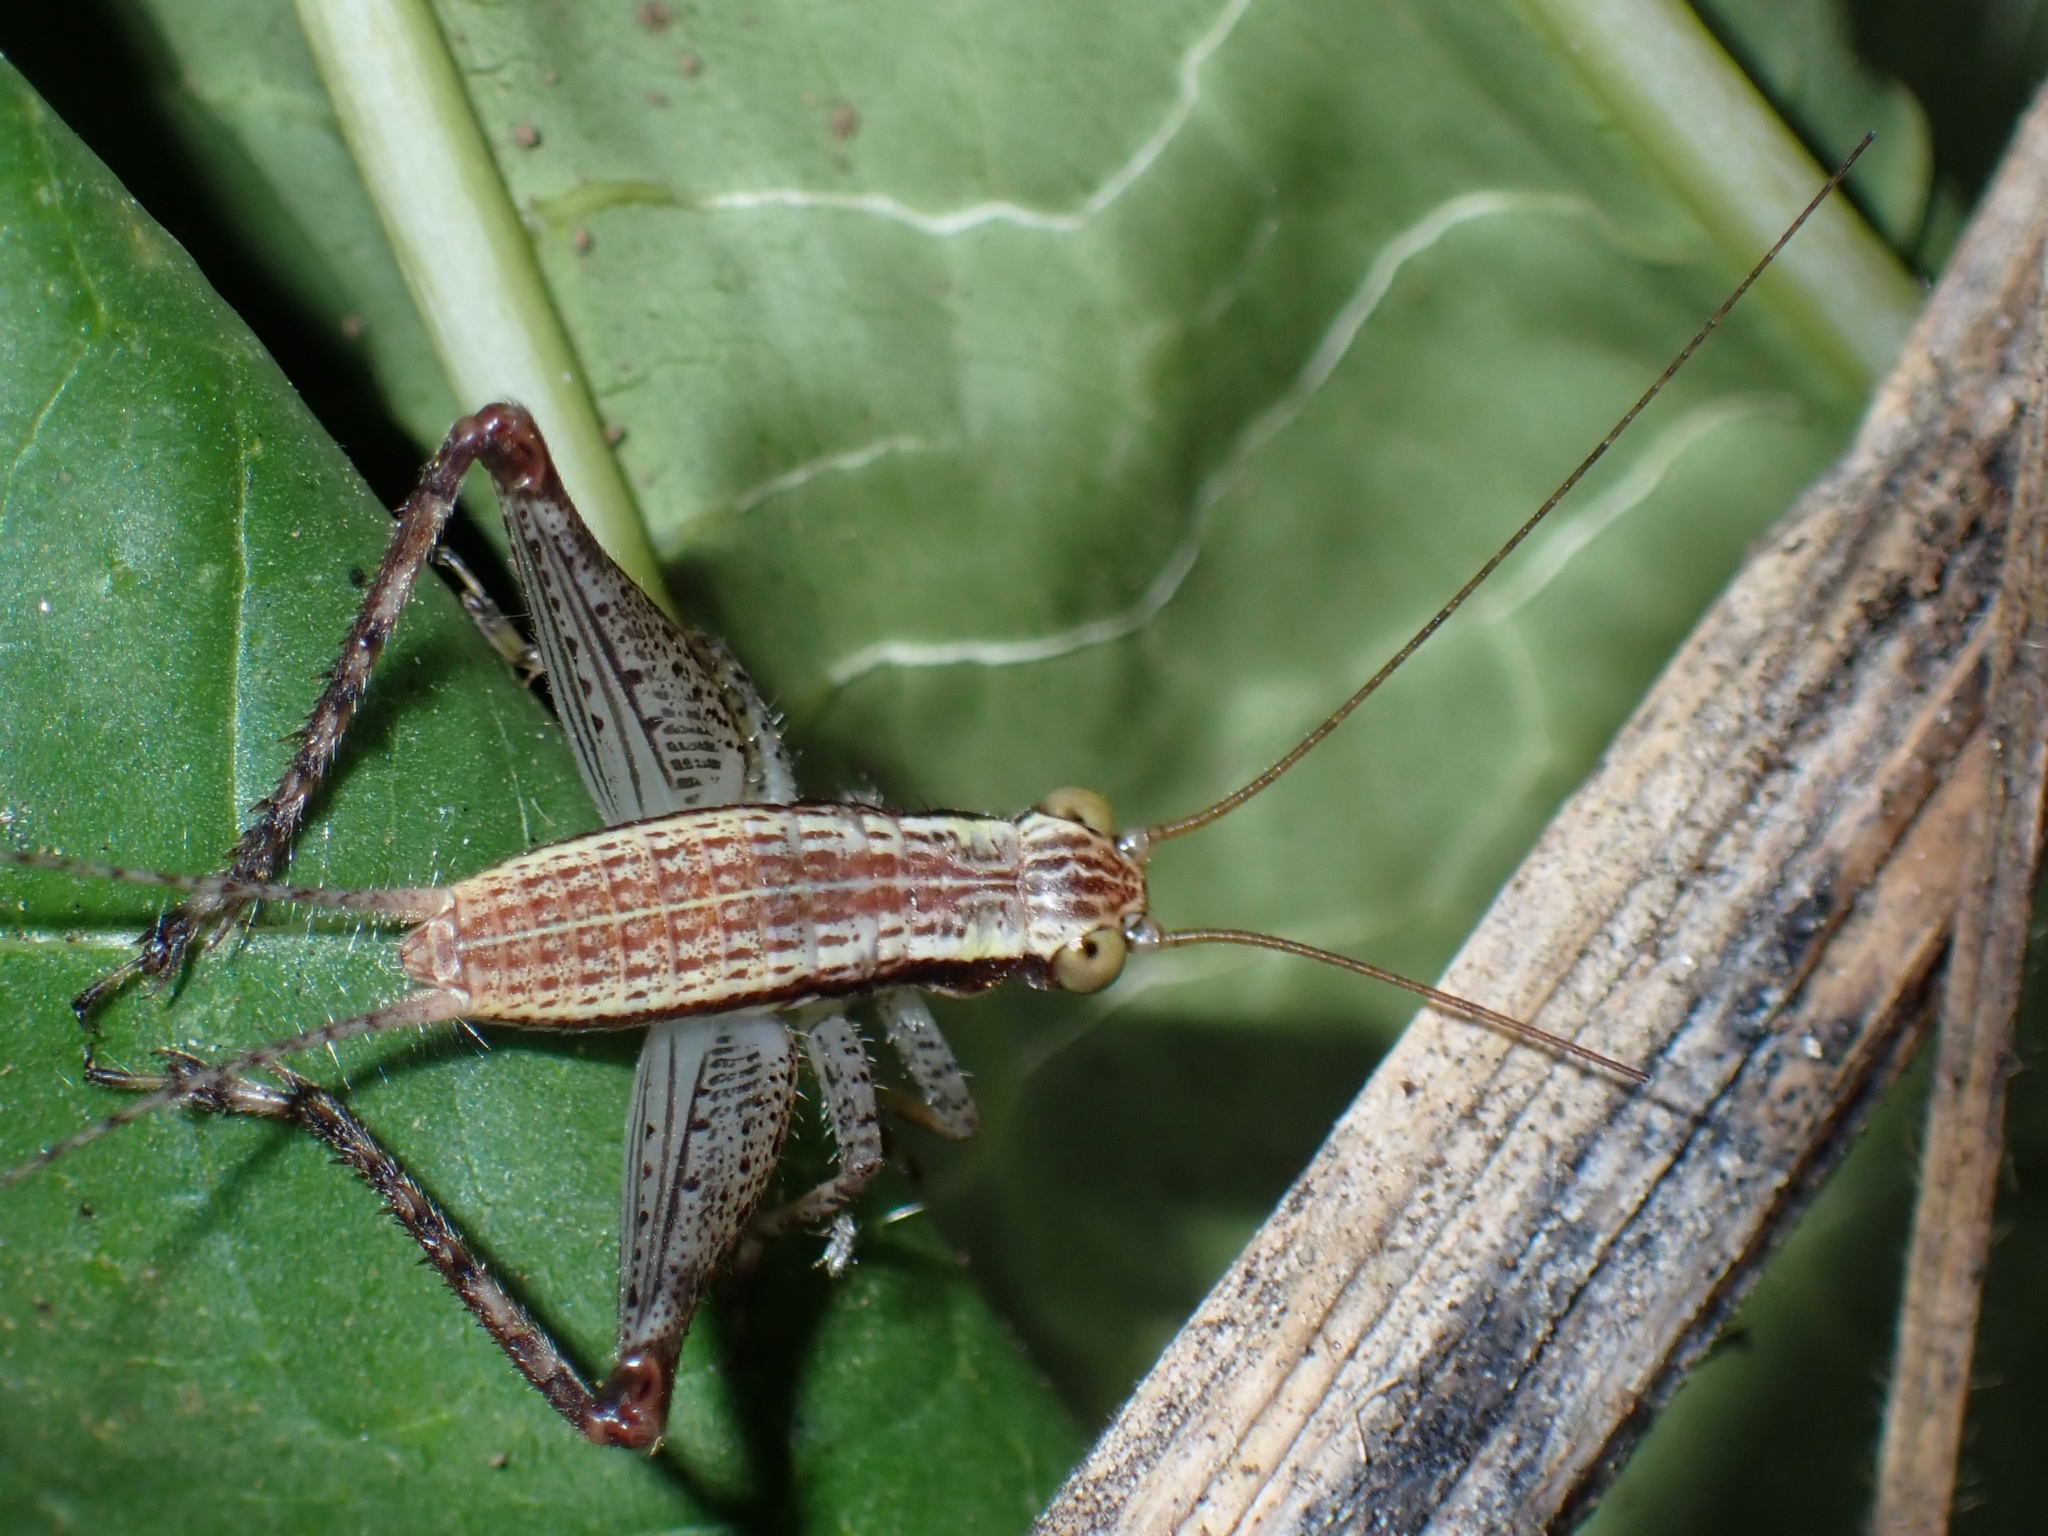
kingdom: Animalia
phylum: Arthropoda
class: Insecta
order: Orthoptera
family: Gryllidae
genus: Cardiodactylus
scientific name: Cardiodactylus novaeguineae
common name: Sad cricket
